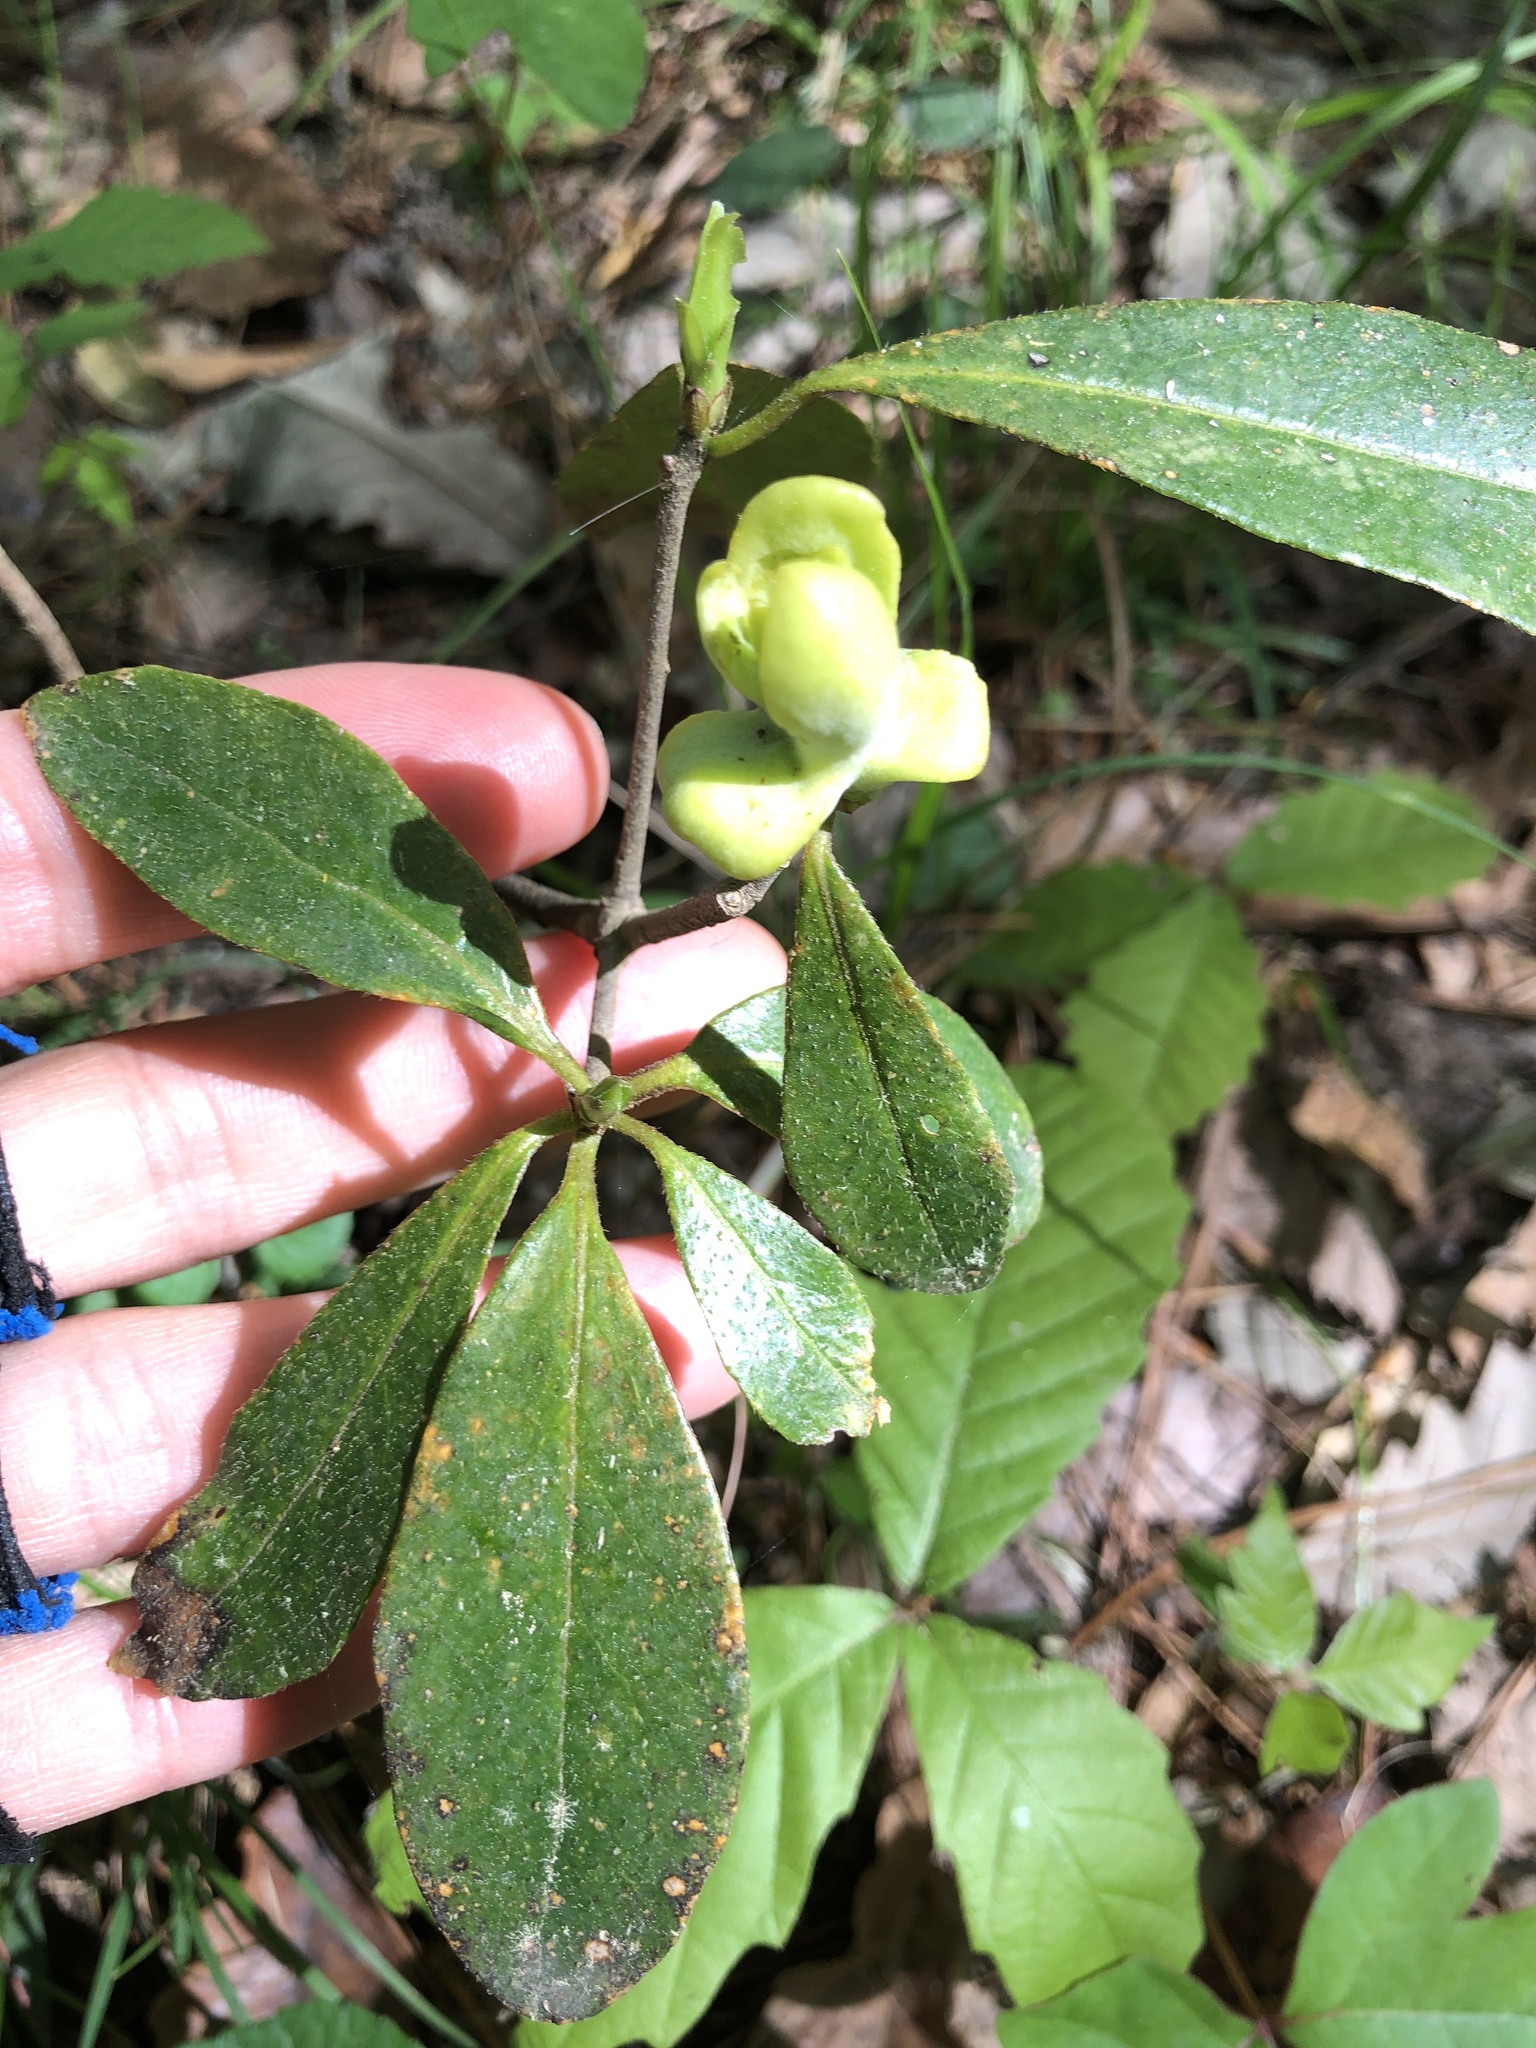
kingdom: Fungi
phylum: Basidiomycota
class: Exobasidiomycetes
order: Exobasidiales
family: Exobasidiaceae
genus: Exobasidium
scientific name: Exobasidium symploci
